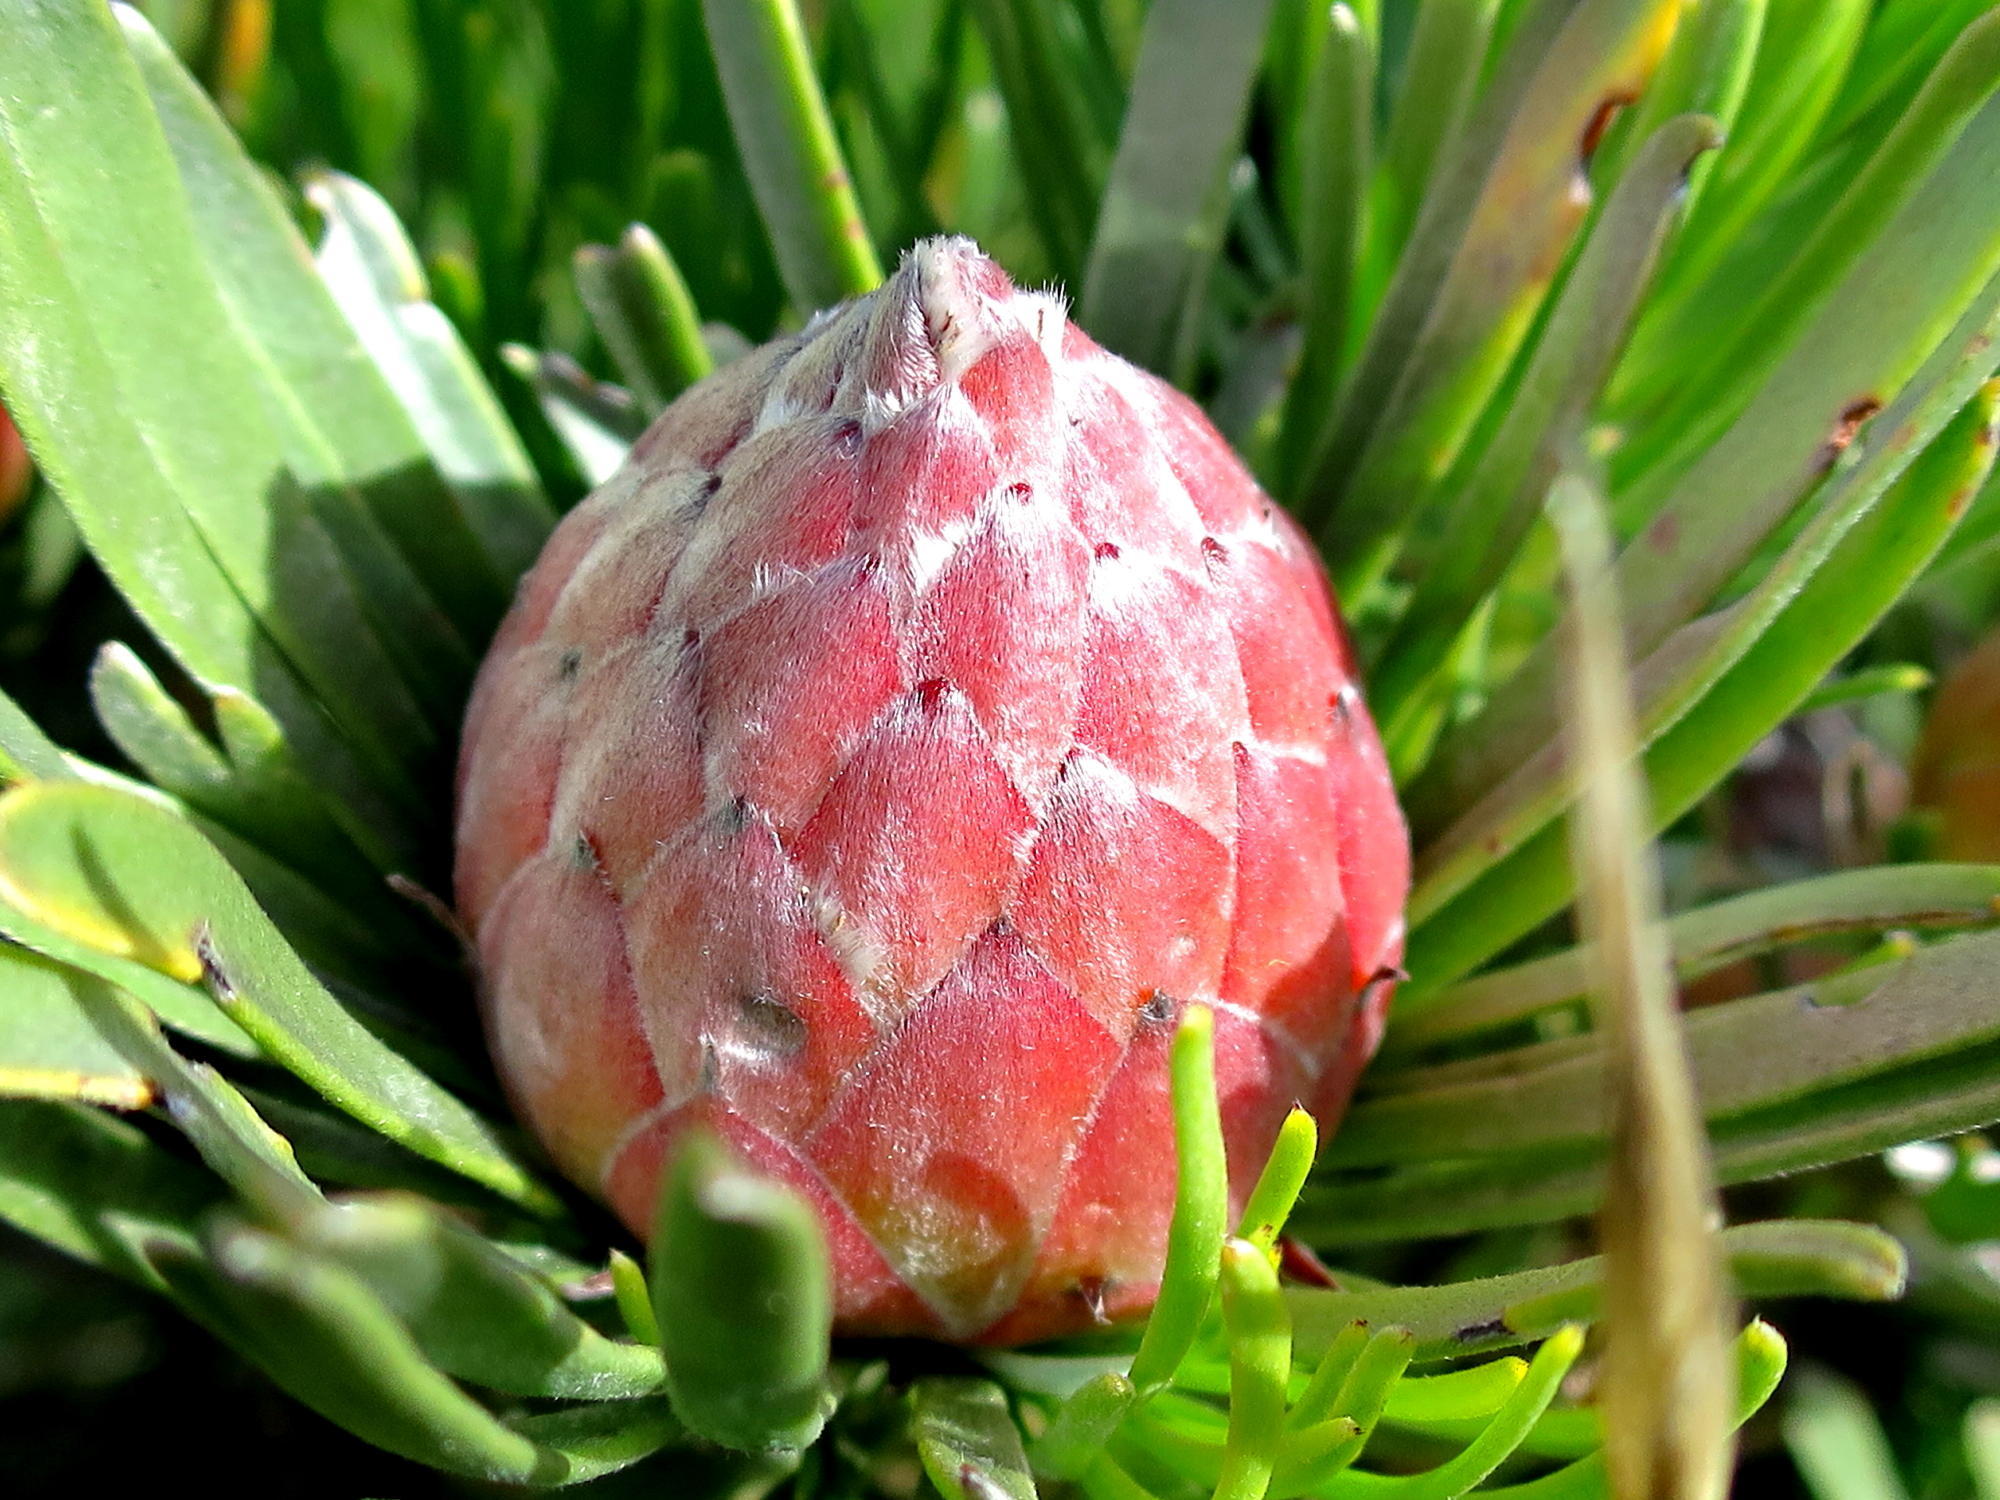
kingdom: Plantae
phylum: Tracheophyta
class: Magnoliopsida
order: Proteales
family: Proteaceae
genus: Leucadendron
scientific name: Leucadendron album
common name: Linear-leaf conebush
